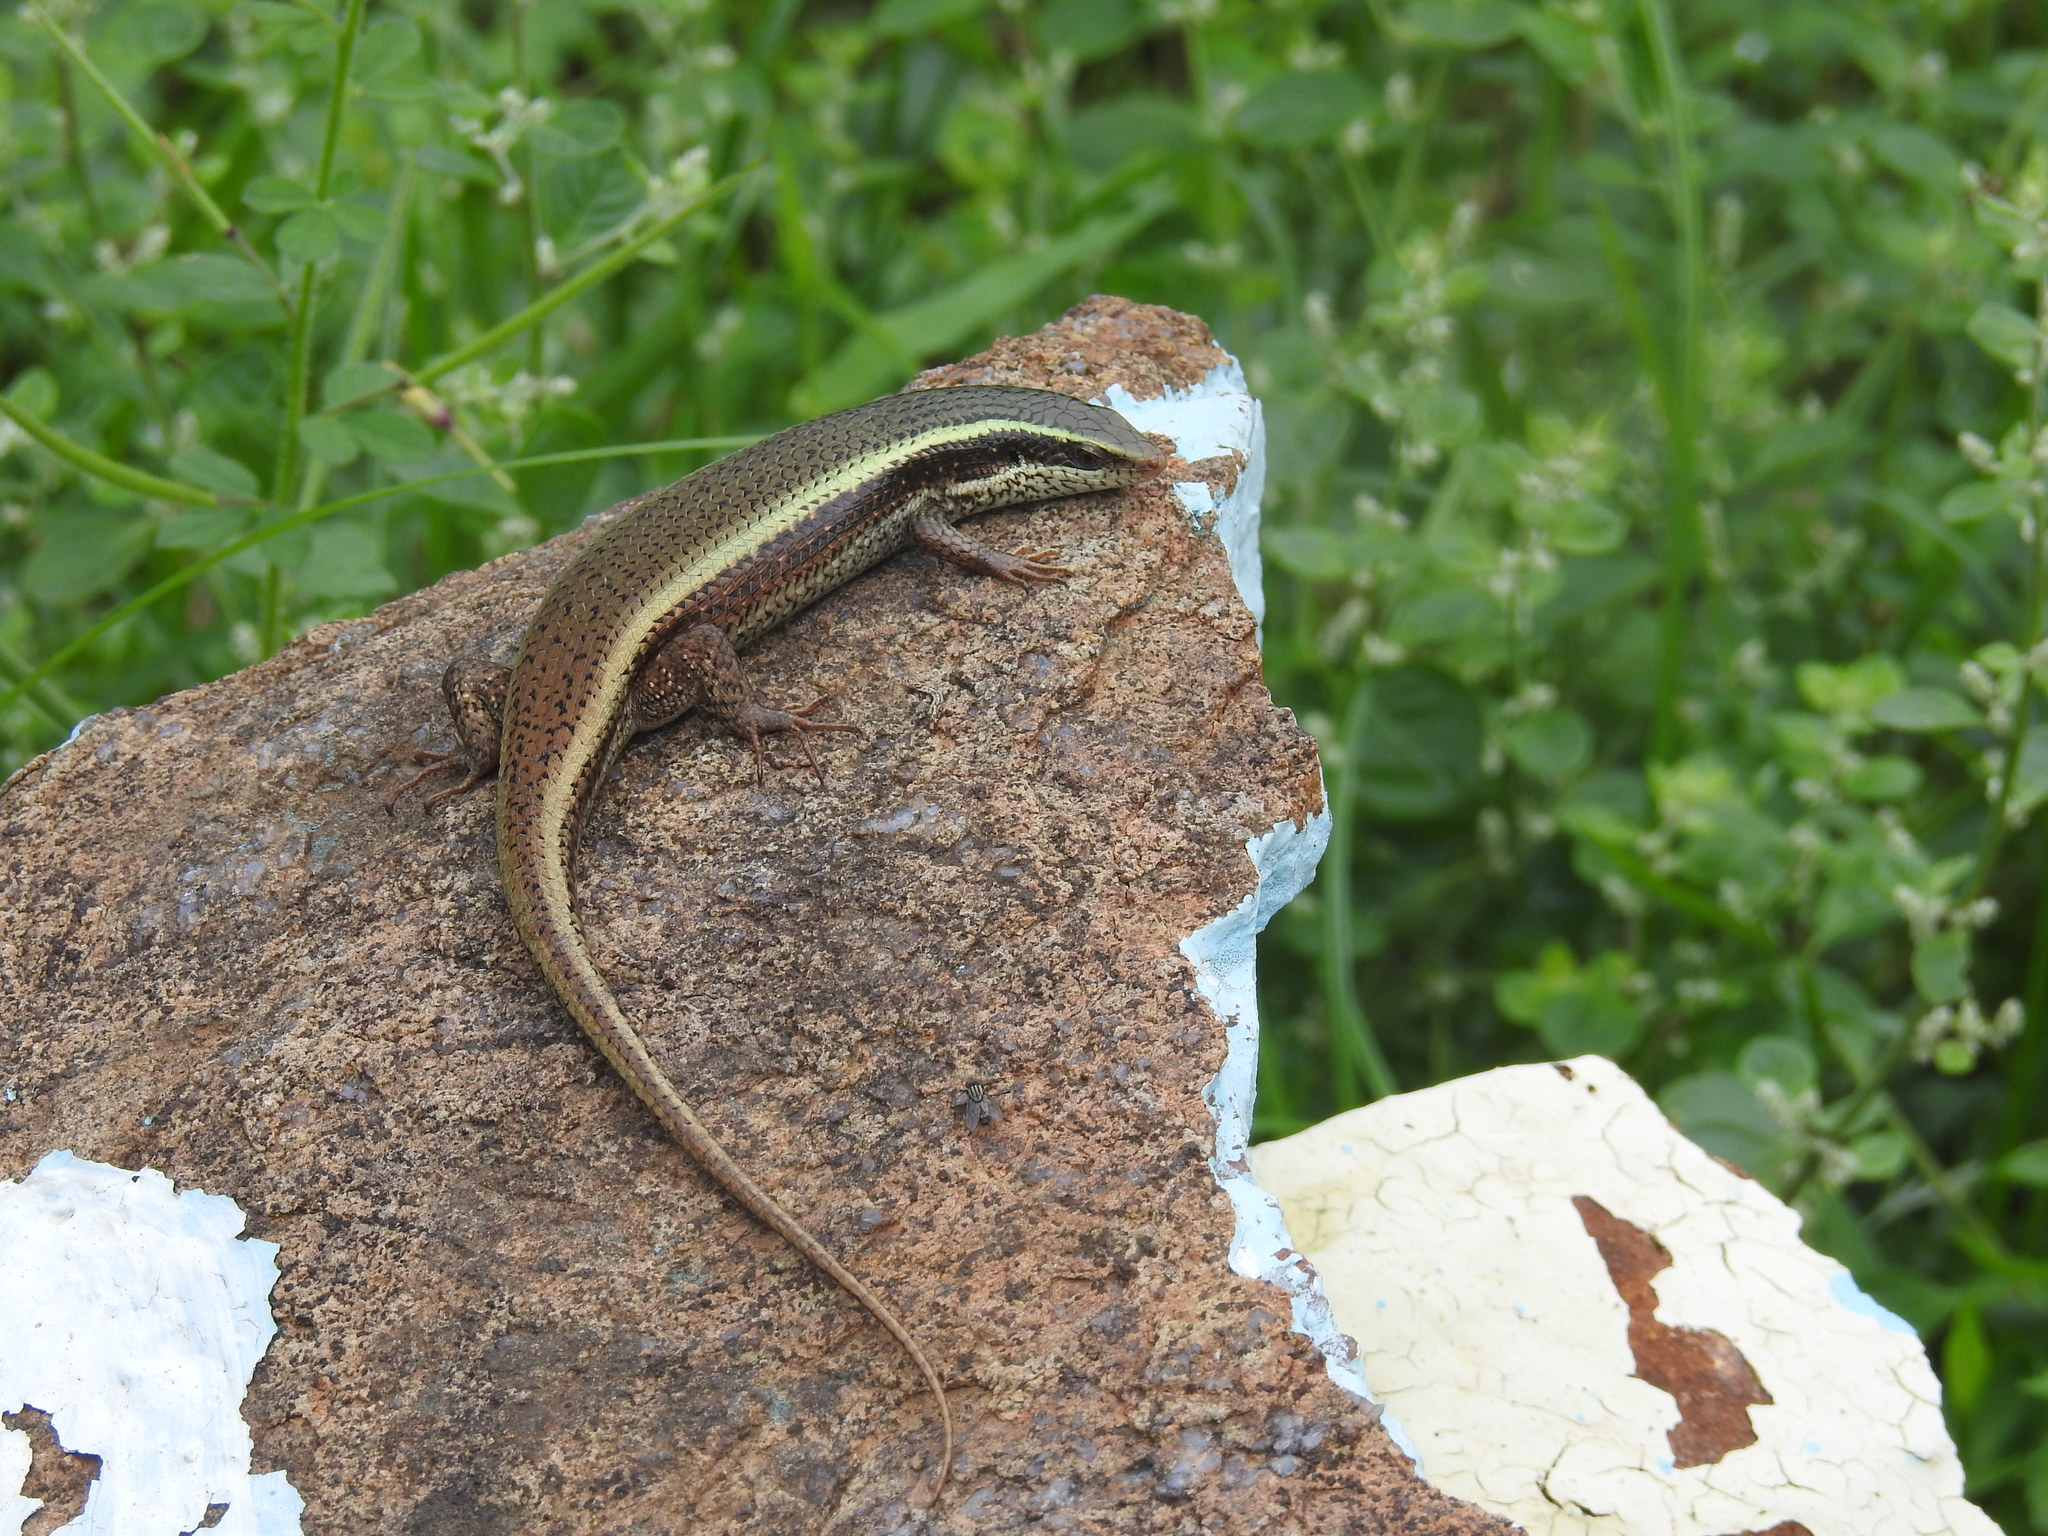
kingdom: Animalia
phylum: Chordata
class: Squamata
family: Scincidae
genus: Eutropis
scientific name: Eutropis carinata
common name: Keeled indian mabuya
